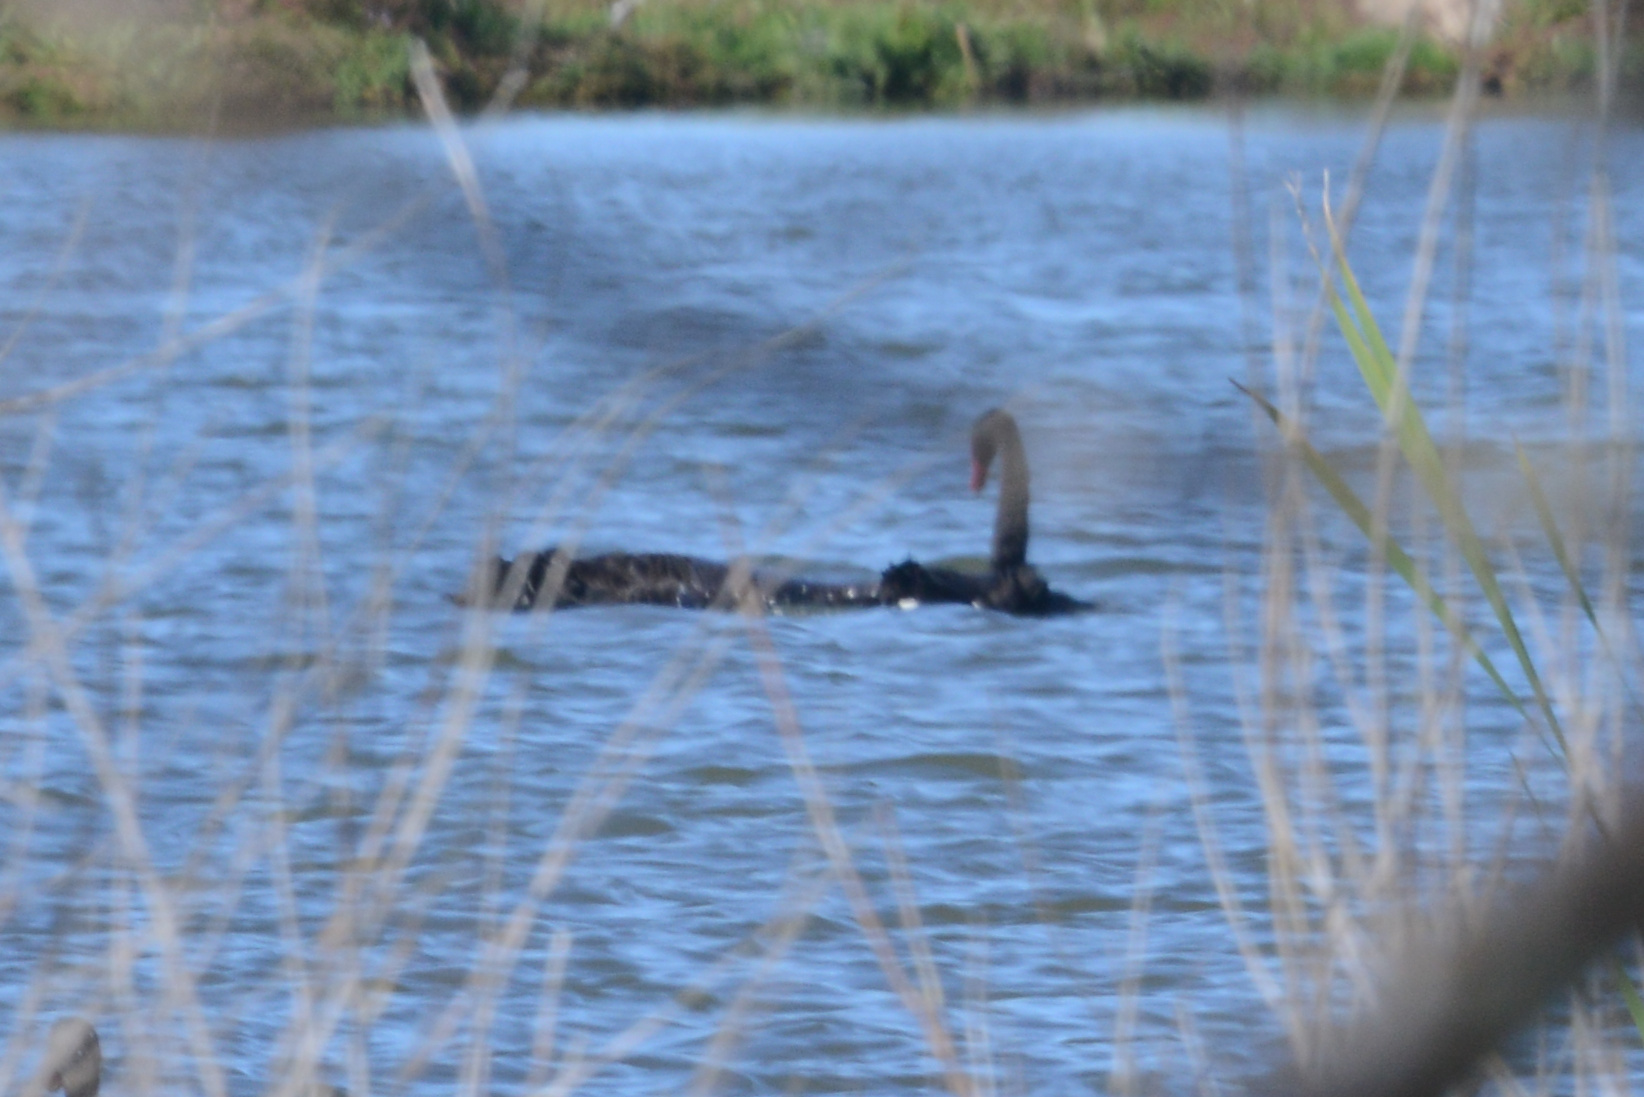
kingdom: Animalia
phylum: Chordata
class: Aves
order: Anseriformes
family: Anatidae
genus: Cygnus
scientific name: Cygnus atratus
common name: Black swan
